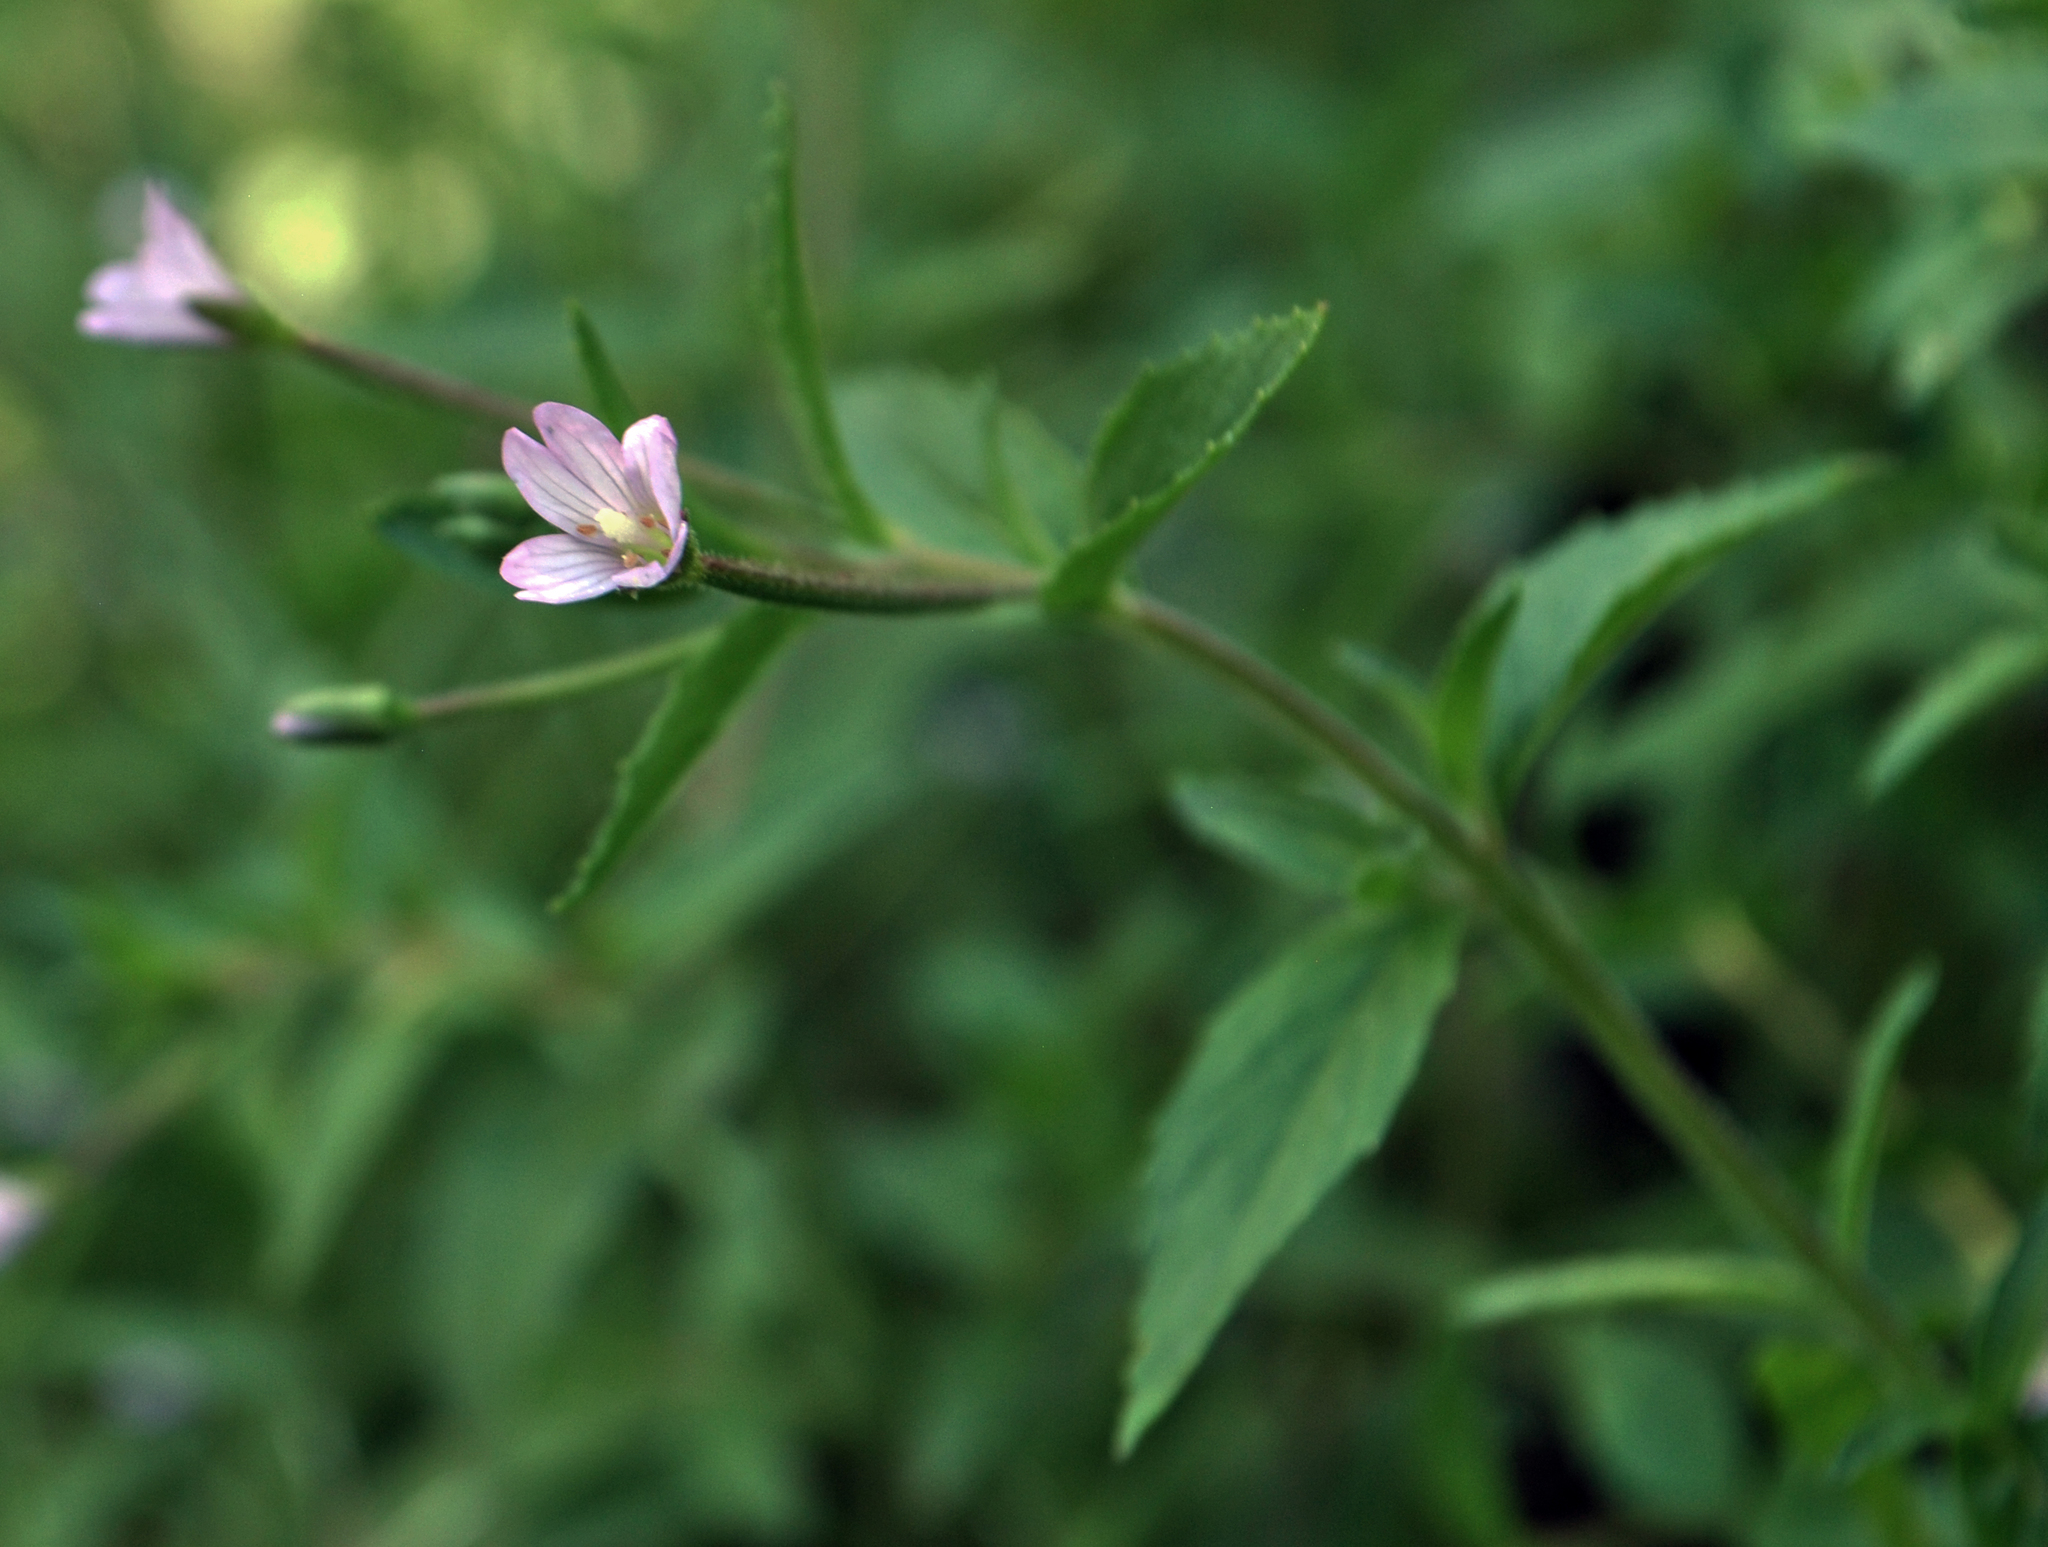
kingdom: Plantae
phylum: Tracheophyta
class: Magnoliopsida
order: Myrtales
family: Onagraceae
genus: Epilobium
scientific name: Epilobium coloratum
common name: Bronze willowherb
